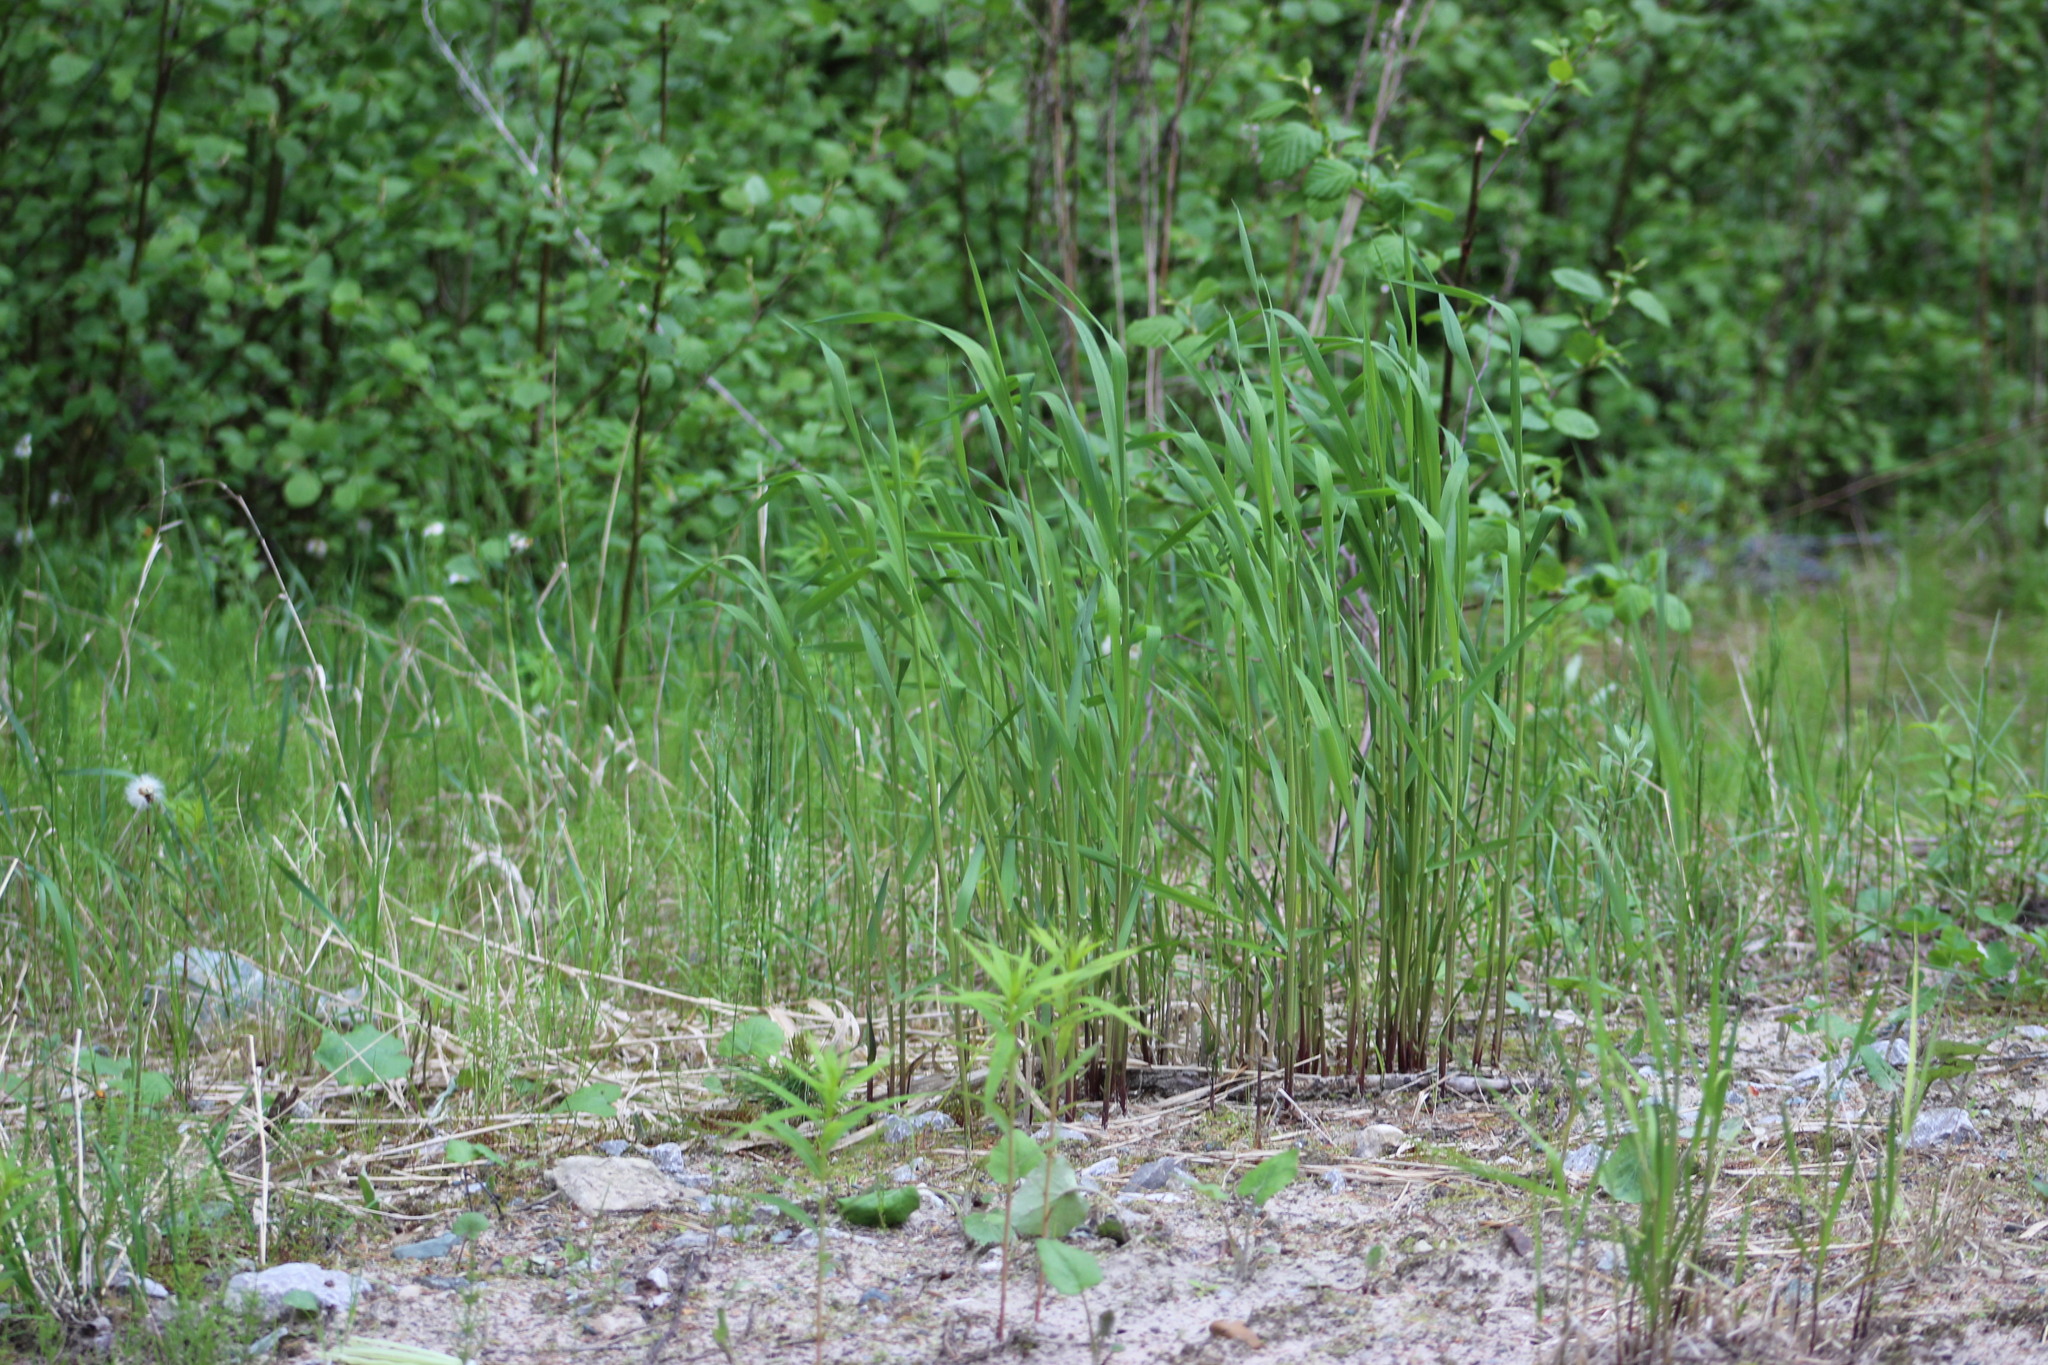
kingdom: Plantae
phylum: Tracheophyta
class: Liliopsida
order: Poales
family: Poaceae
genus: Phalaris
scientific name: Phalaris arundinacea
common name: Reed canary-grass
